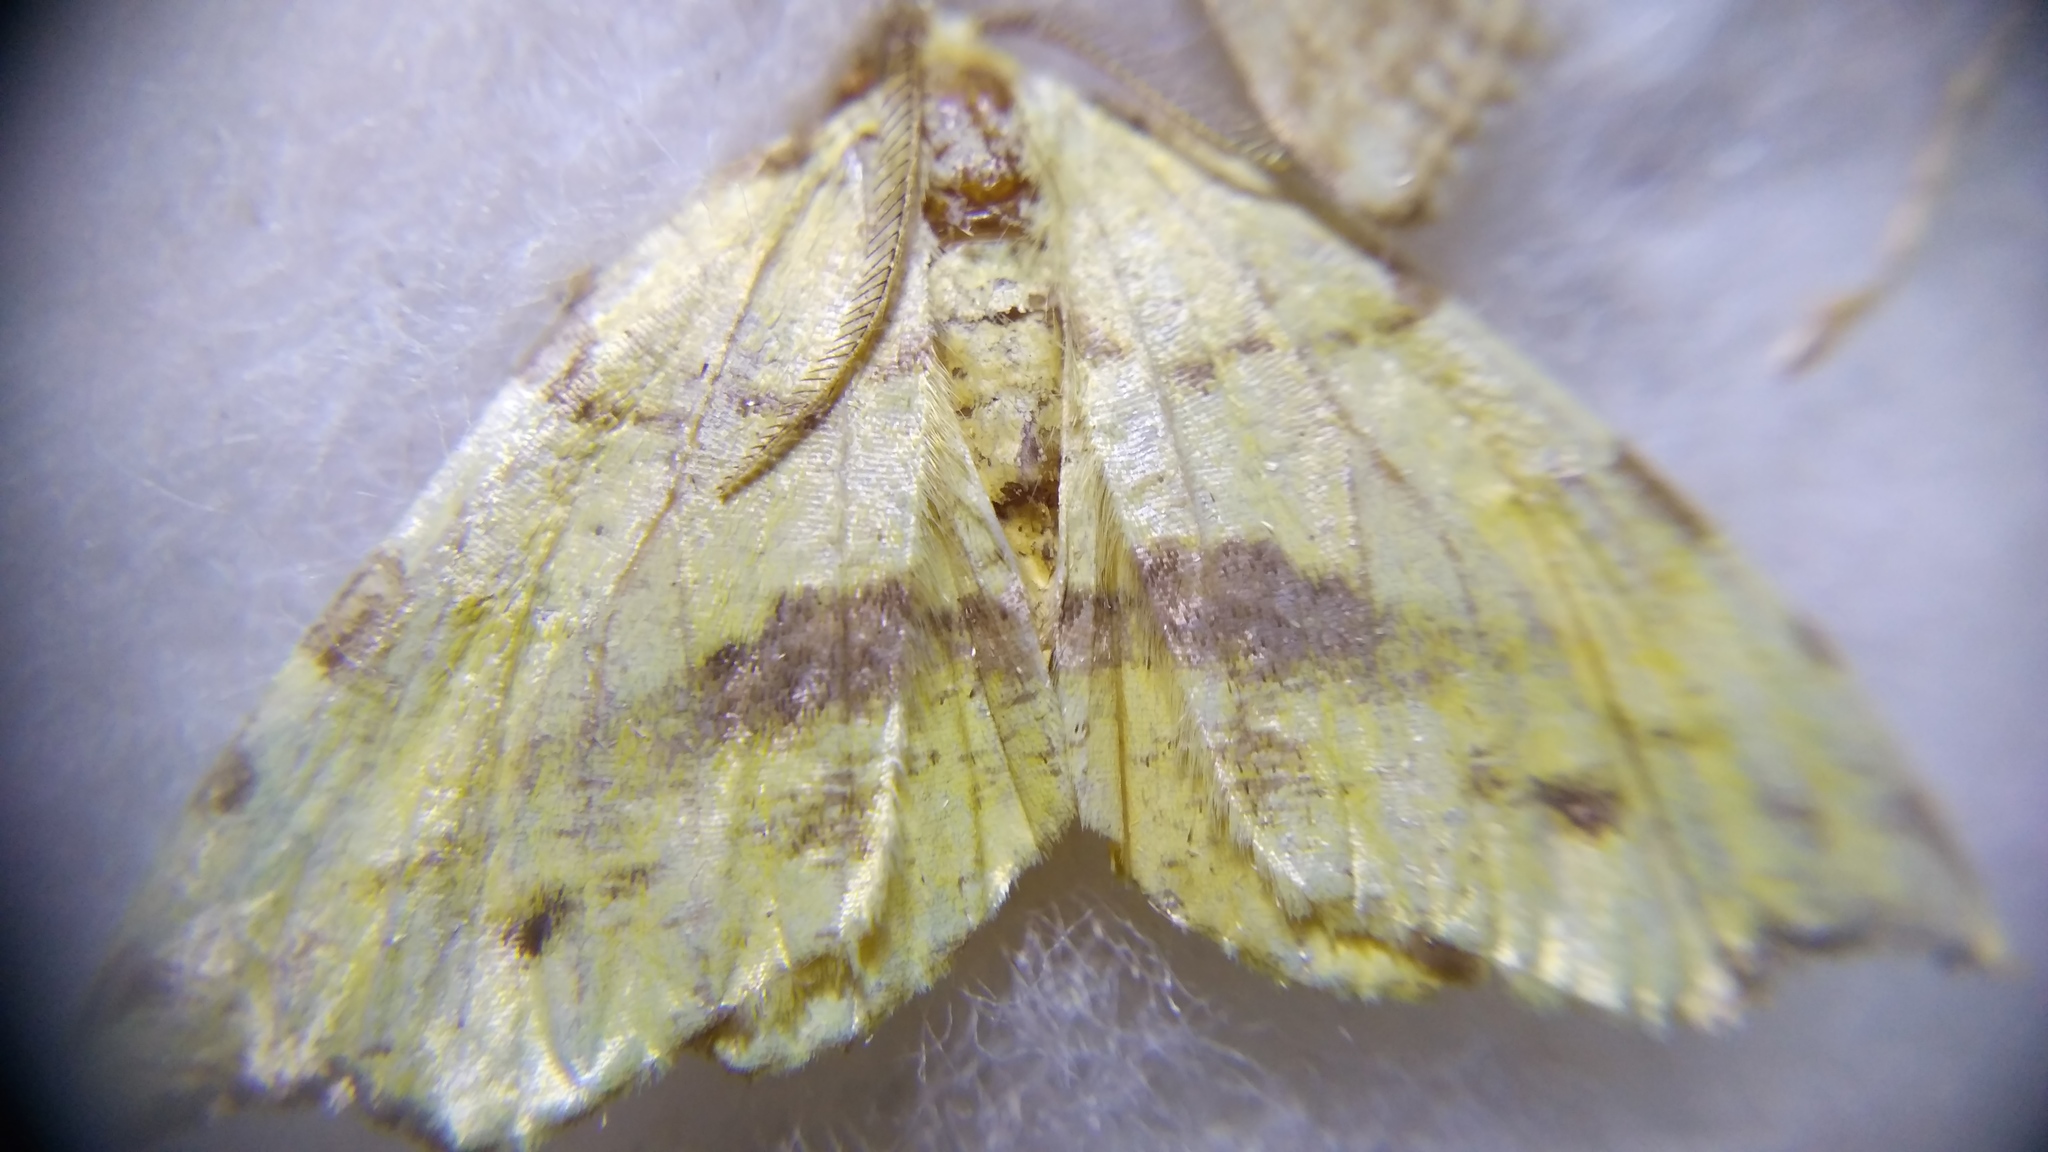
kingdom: Animalia
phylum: Arthropoda
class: Insecta
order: Lepidoptera
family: Geometridae
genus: Therapis
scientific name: Therapis flavicaria
